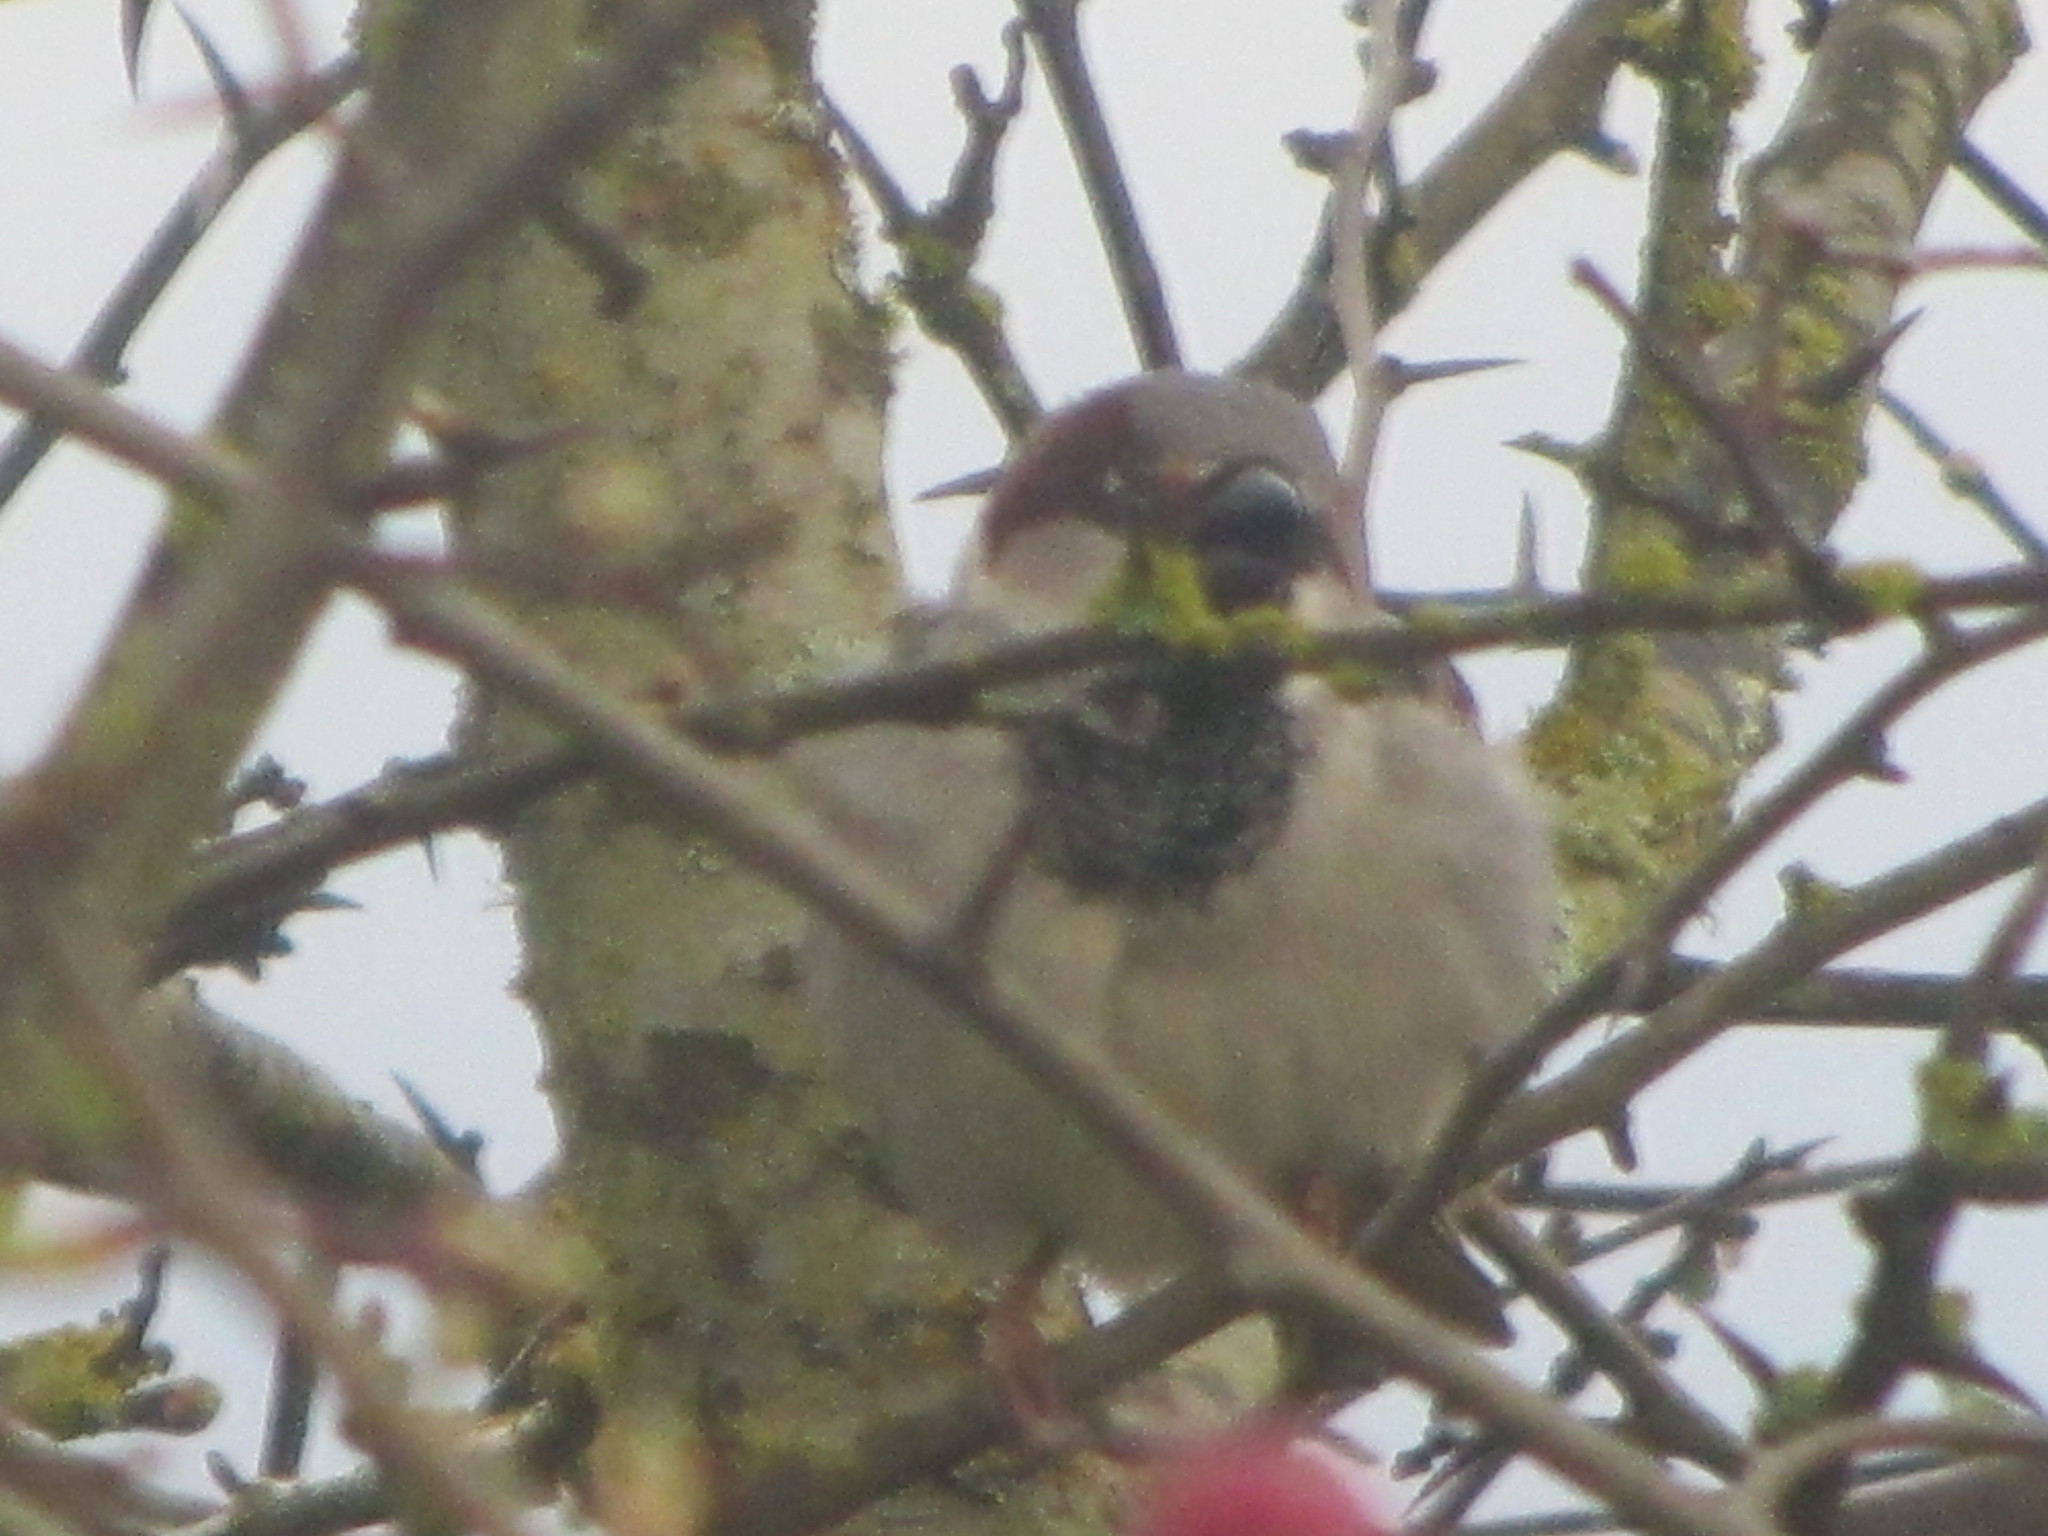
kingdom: Animalia
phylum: Chordata
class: Aves
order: Passeriformes
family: Passeridae
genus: Passer
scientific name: Passer domesticus
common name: House sparrow
